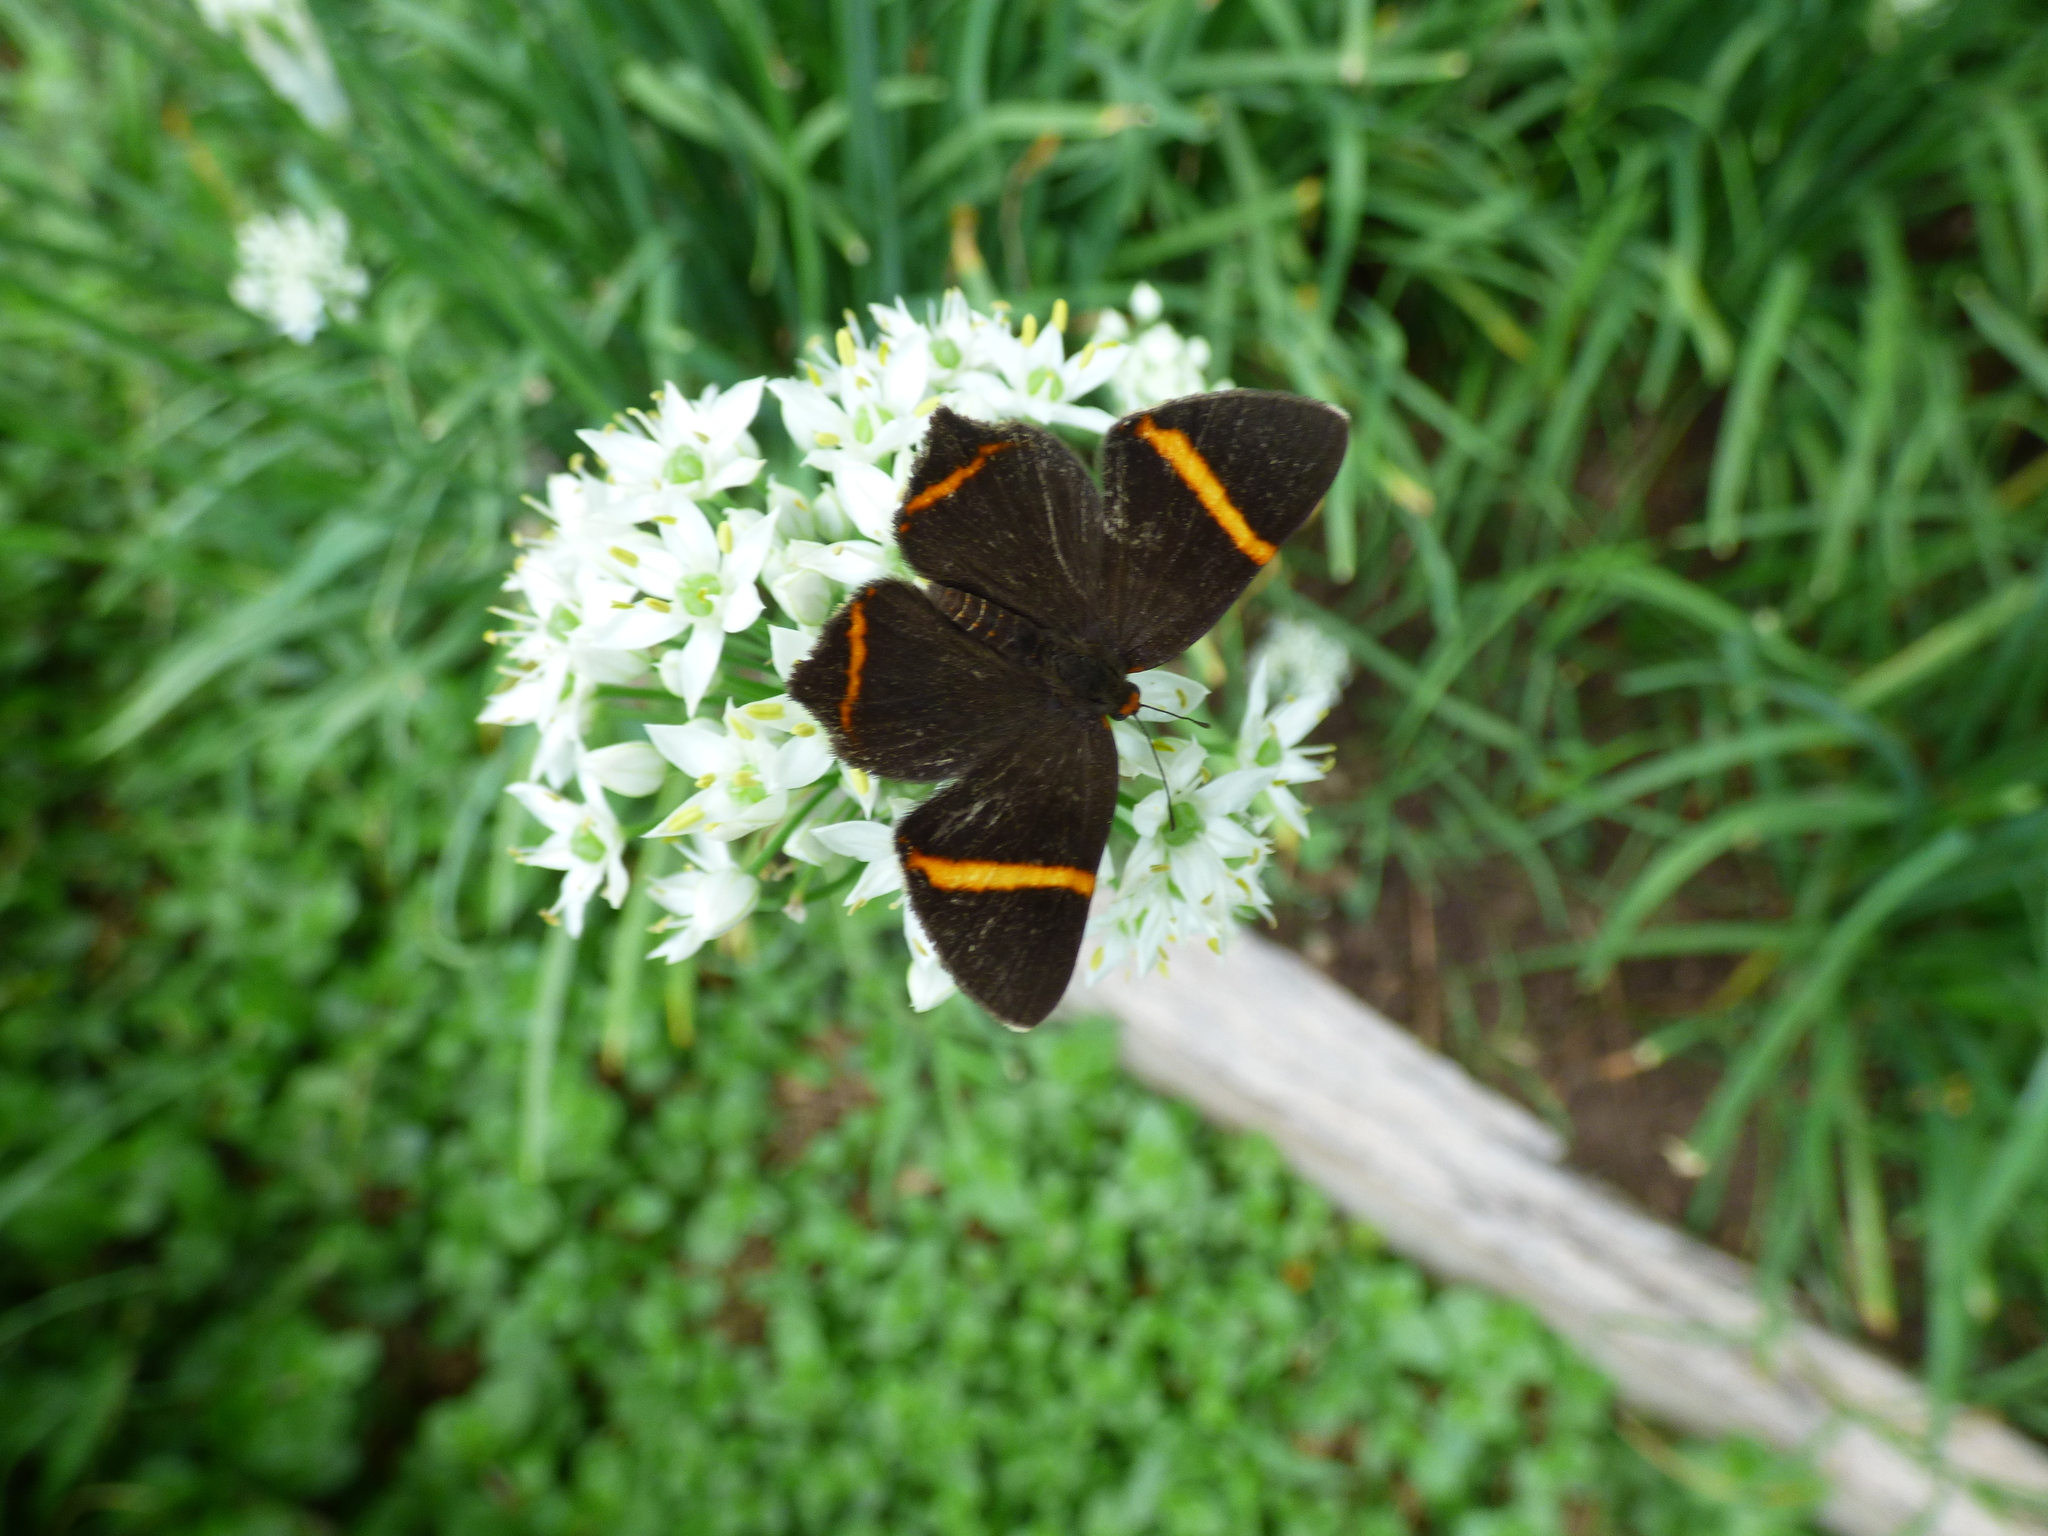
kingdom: Animalia
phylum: Arthropoda
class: Insecta
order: Lepidoptera
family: Riodinidae
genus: Riodina
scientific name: Riodina lysippoides
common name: Little dancer metalmark
